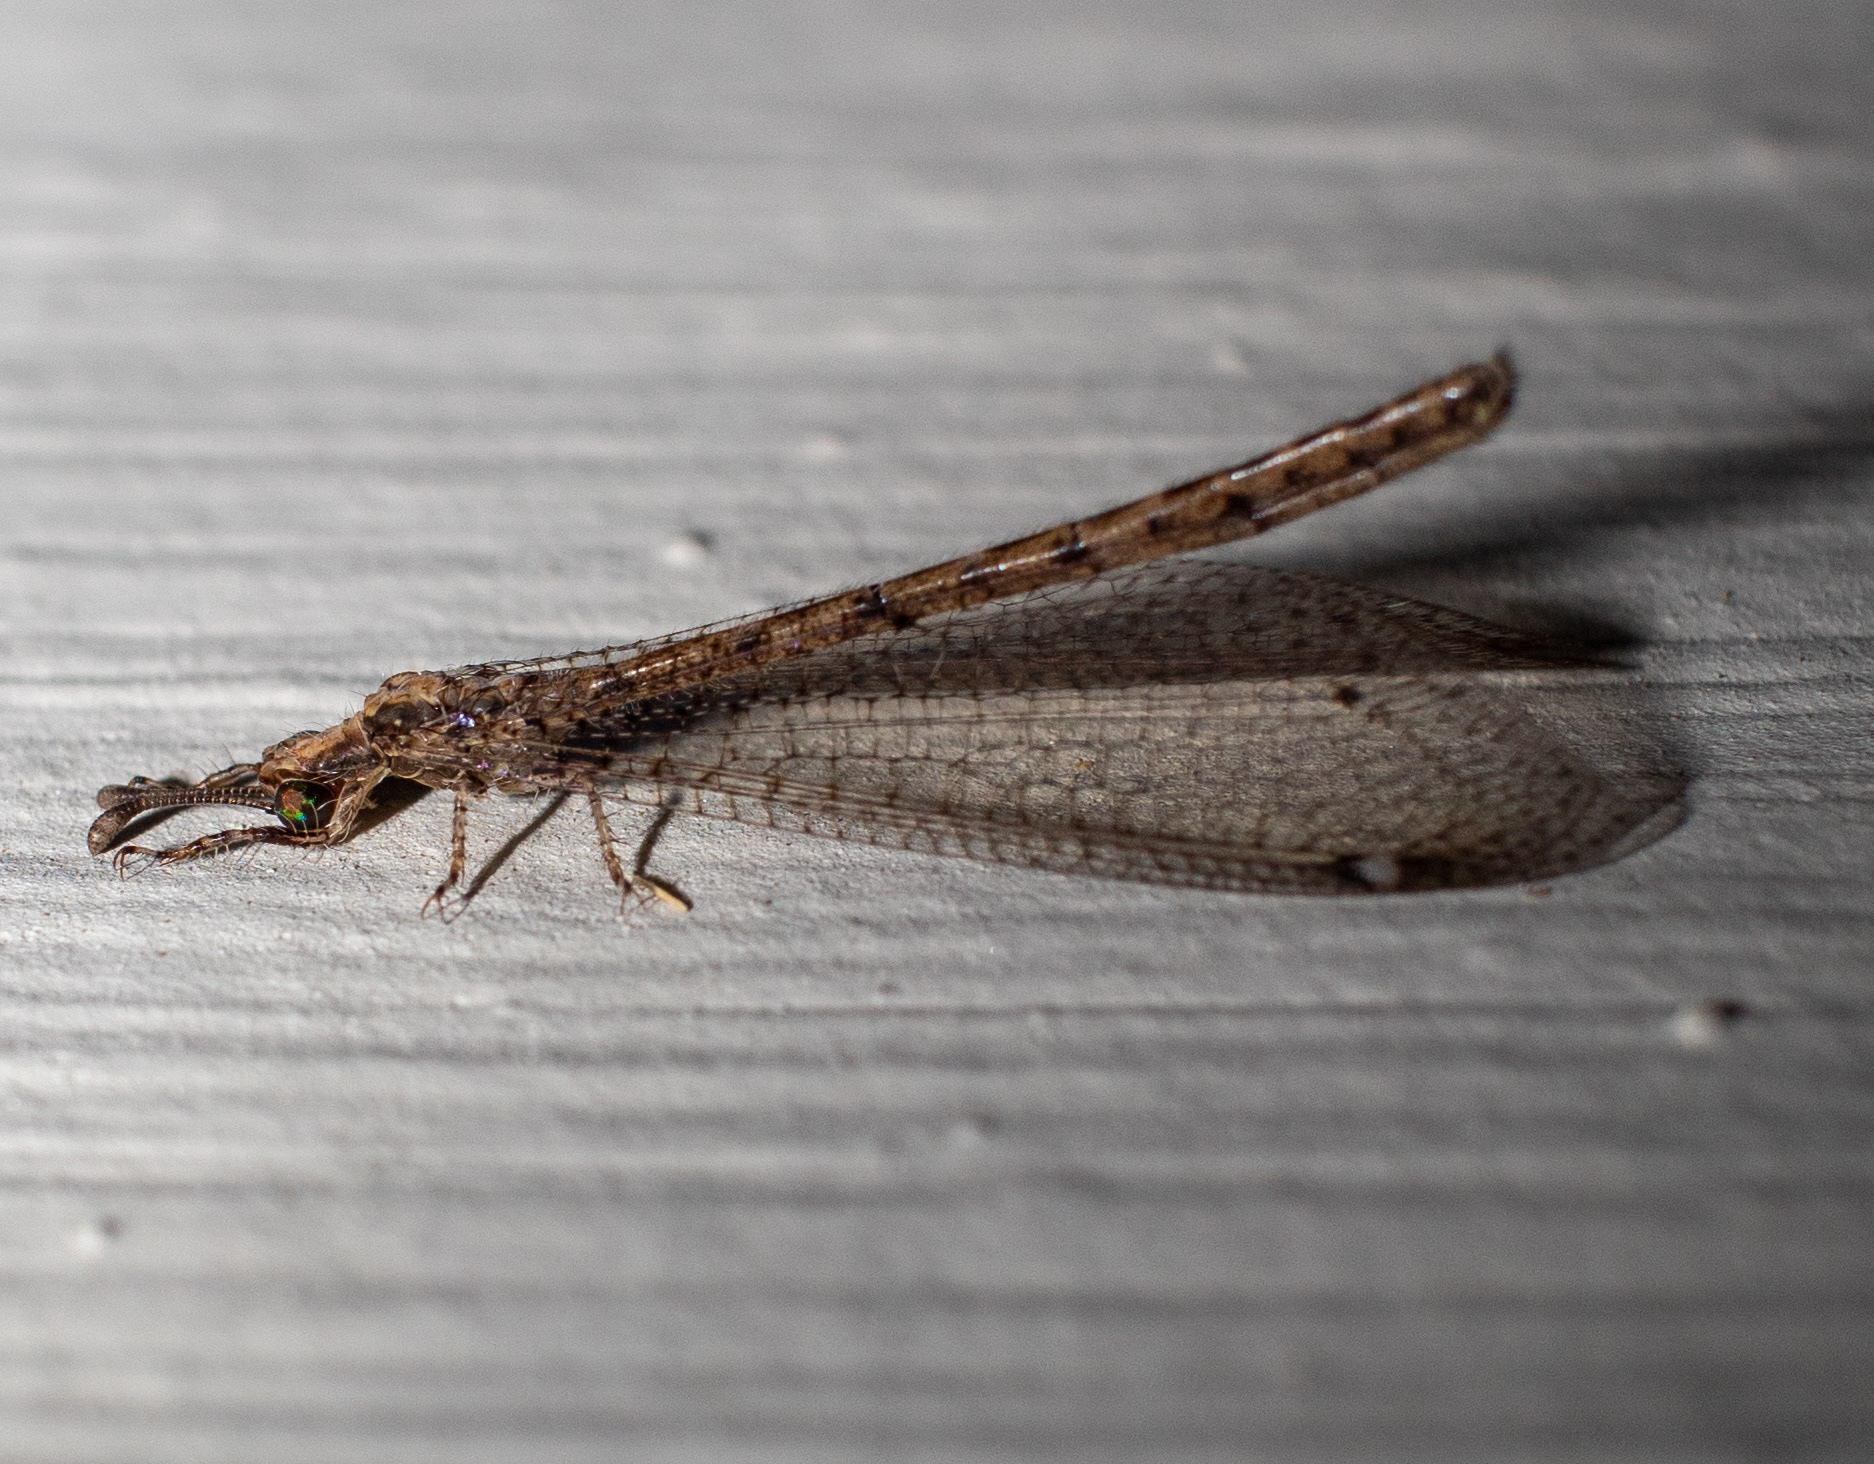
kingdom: Animalia
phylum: Arthropoda
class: Insecta
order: Neuroptera
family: Myrmeleontidae
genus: Austroleon
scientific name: Austroleon immitis
